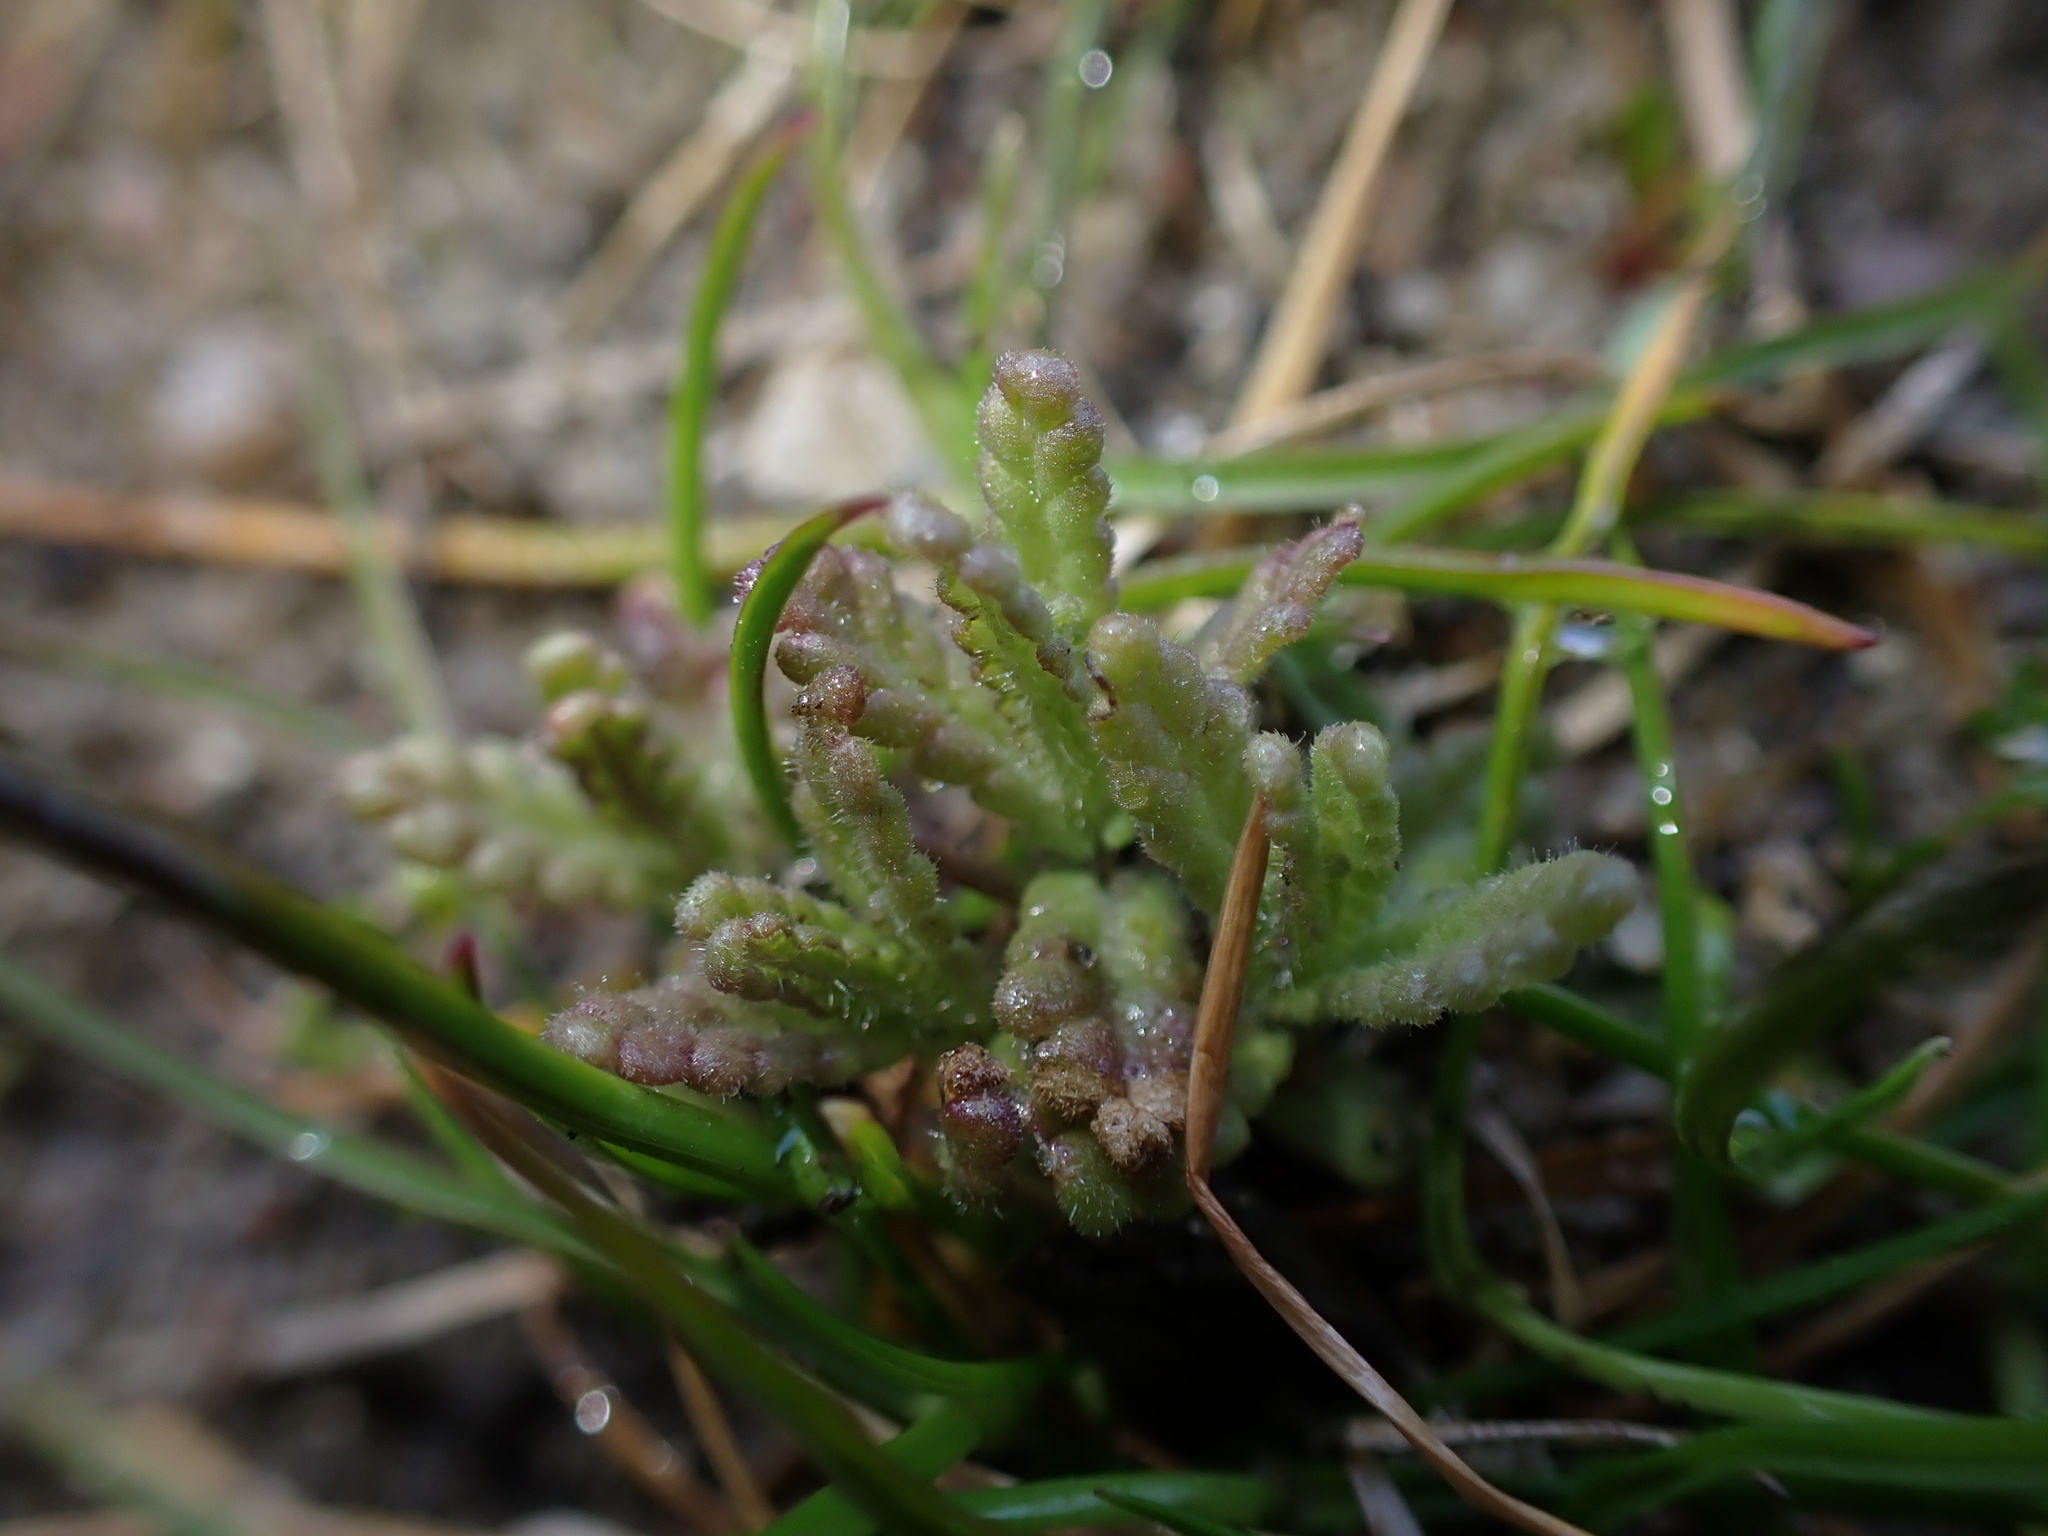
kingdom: Plantae
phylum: Tracheophyta
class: Magnoliopsida
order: Lamiales
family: Orobanchaceae
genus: Rhinanthus
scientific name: Rhinanthus minor
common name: Yellow-rattle
